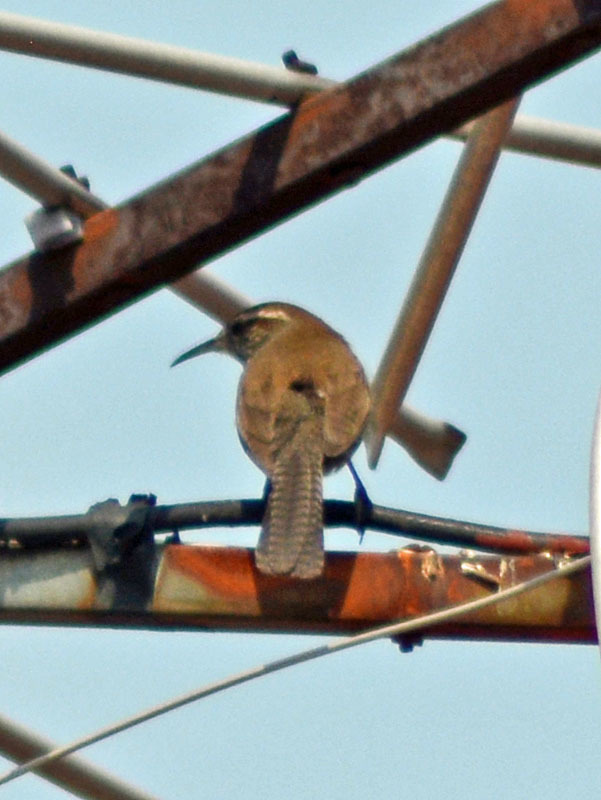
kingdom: Animalia
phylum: Chordata
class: Aves
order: Passeriformes
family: Troglodytidae
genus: Thryomanes
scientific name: Thryomanes bewickii
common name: Bewick's wren
